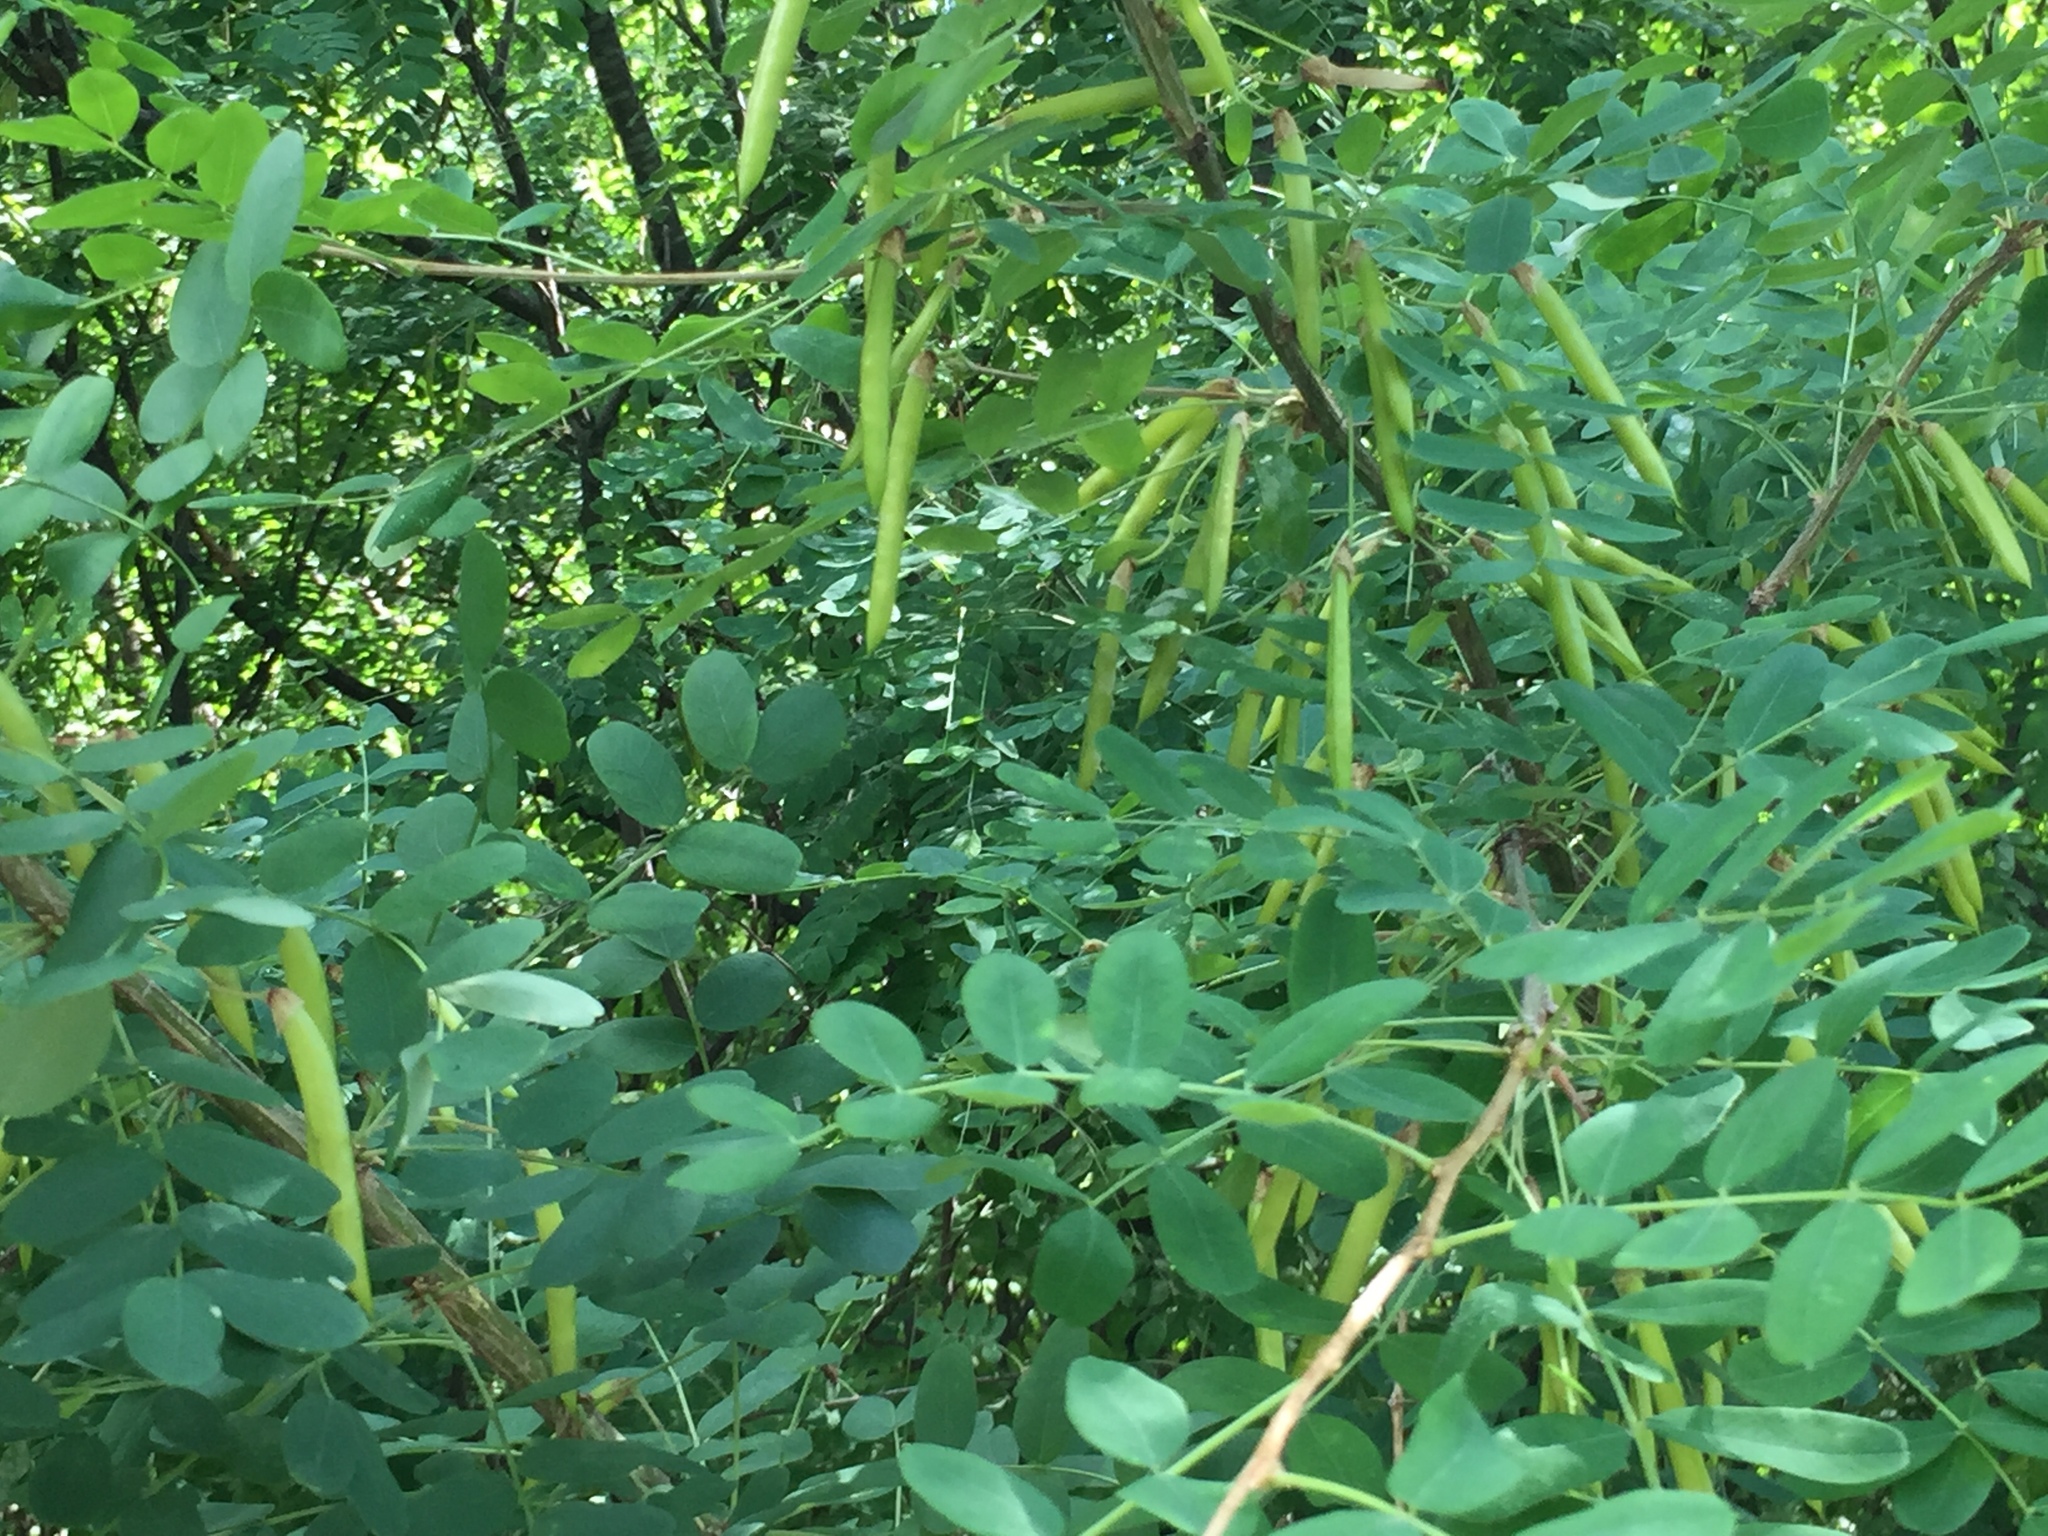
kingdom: Plantae
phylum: Tracheophyta
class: Magnoliopsida
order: Fabales
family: Fabaceae
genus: Caragana
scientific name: Caragana arborescens
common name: Siberian peashrub
